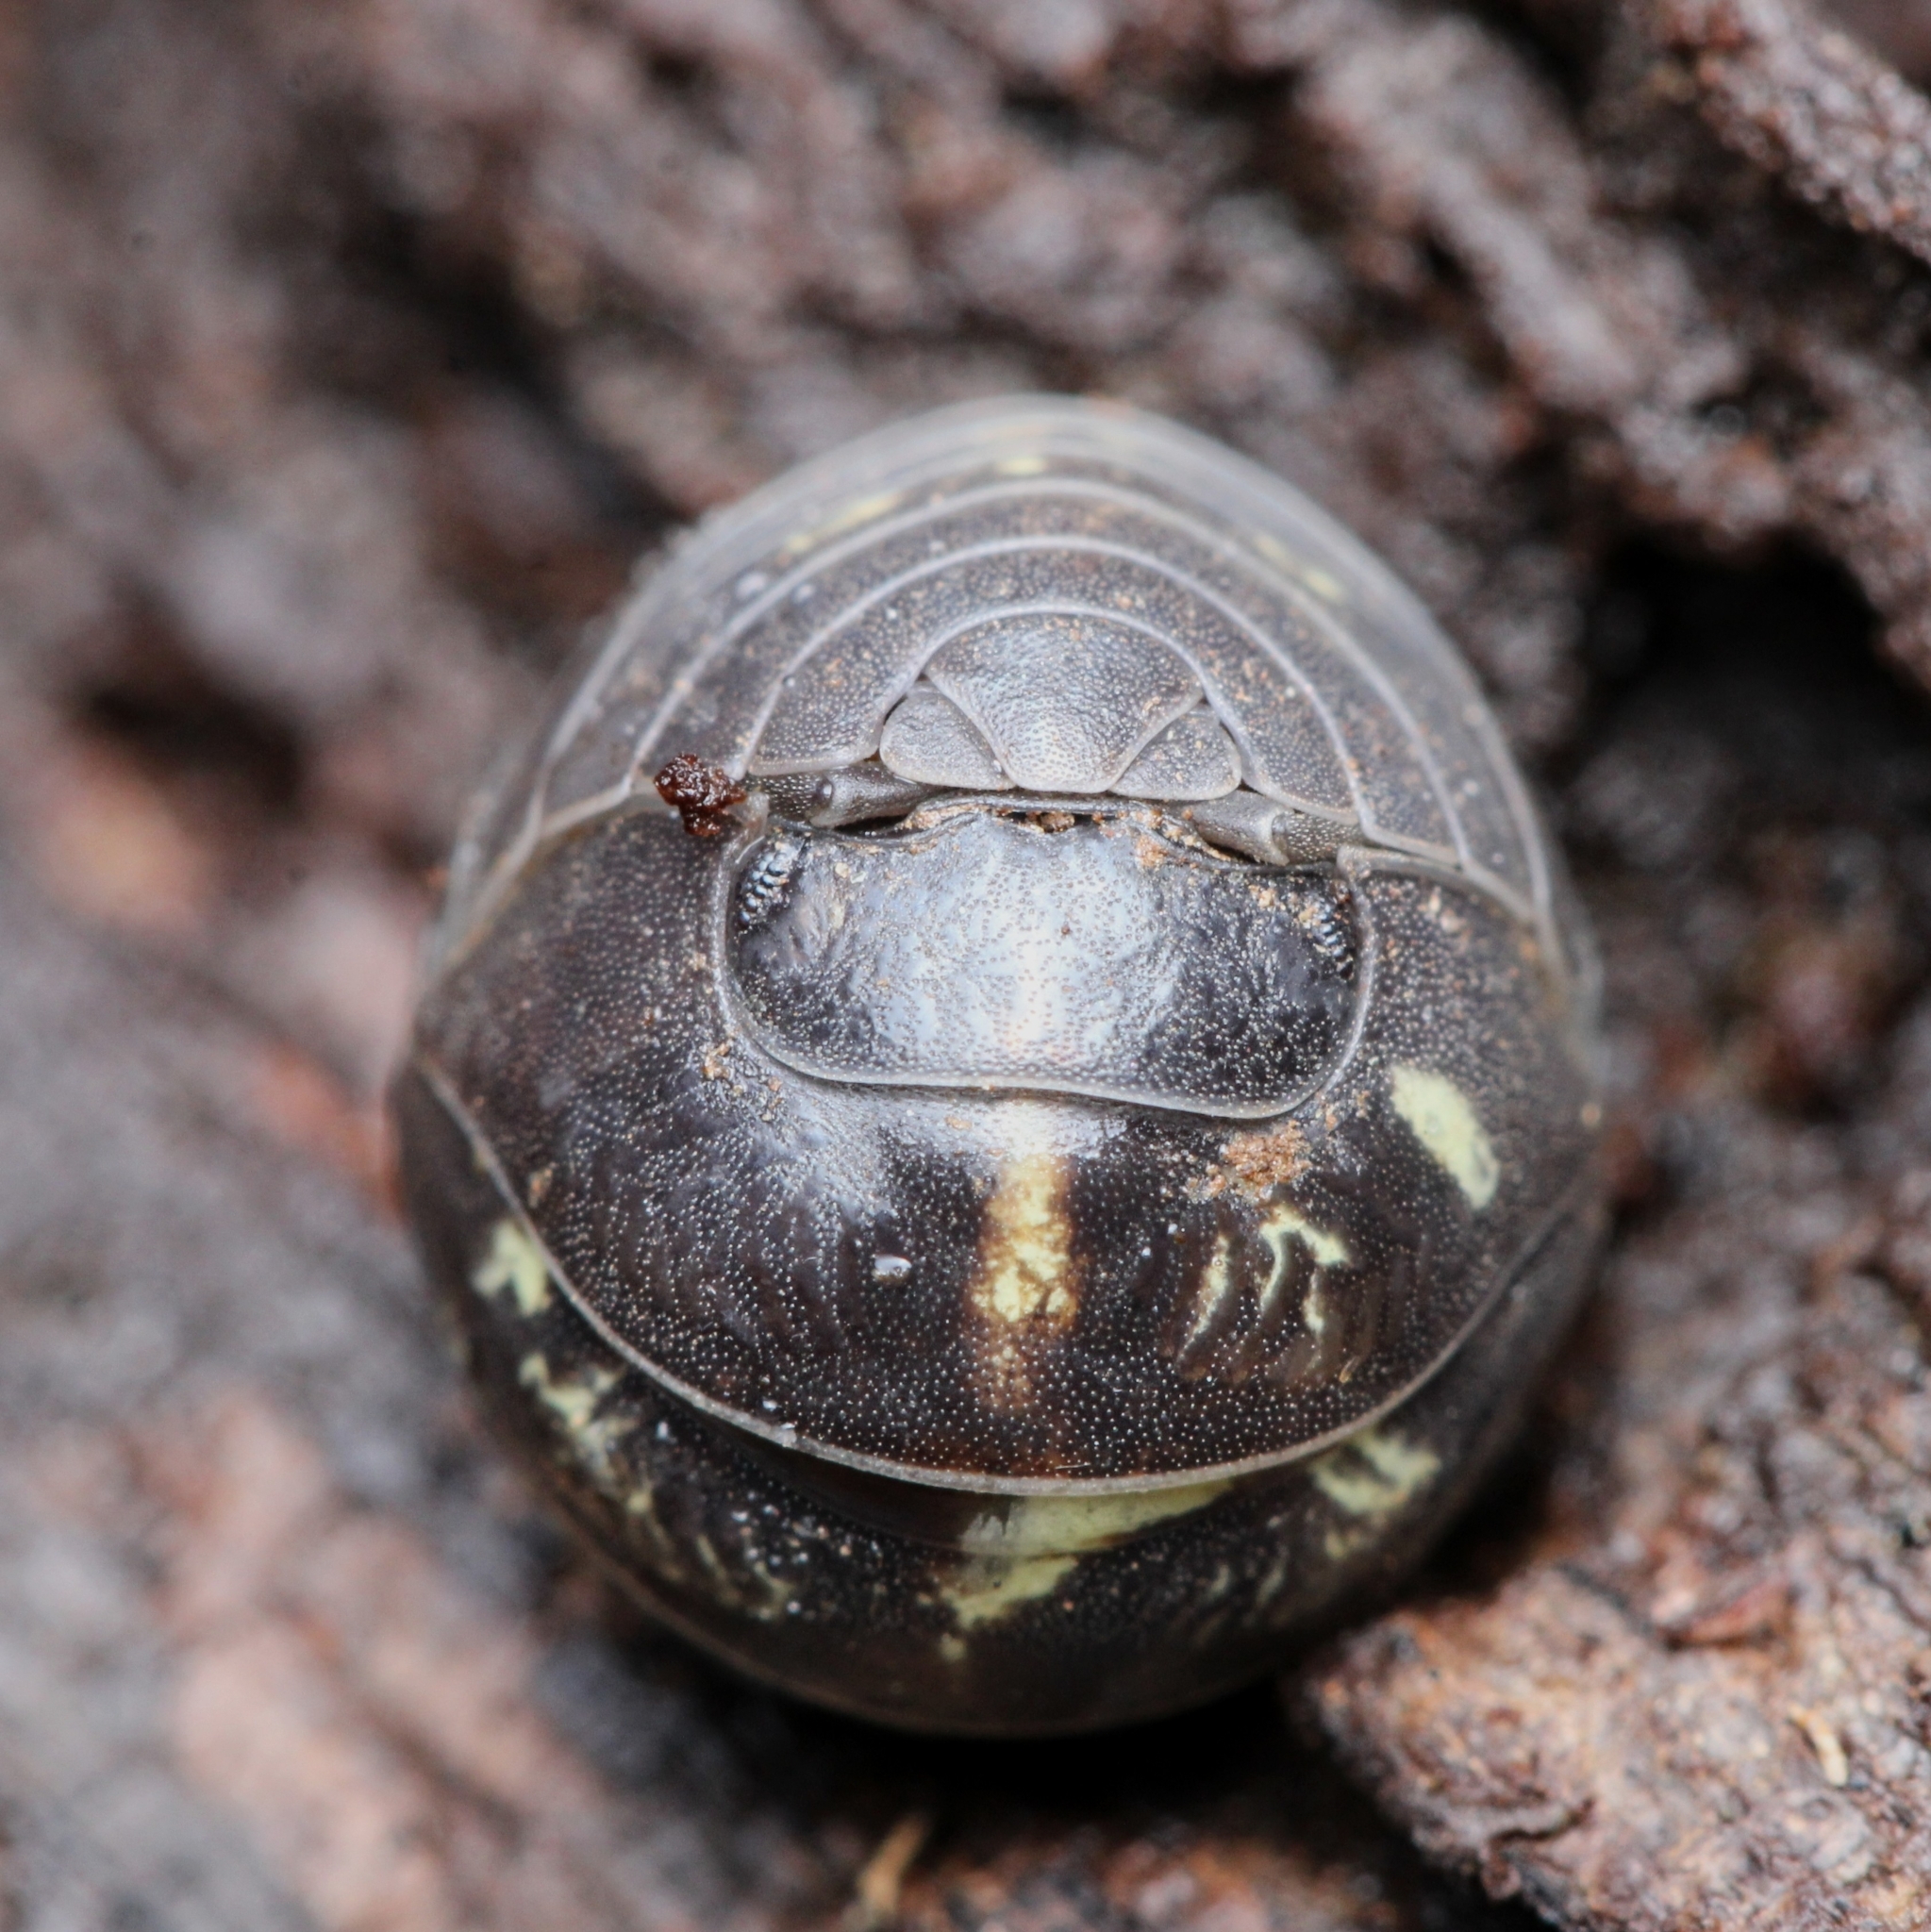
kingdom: Animalia
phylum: Arthropoda
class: Malacostraca
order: Isopoda
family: Armadillidiidae
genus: Armadillidium
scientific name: Armadillidium vulgare
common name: Common pill woodlouse
